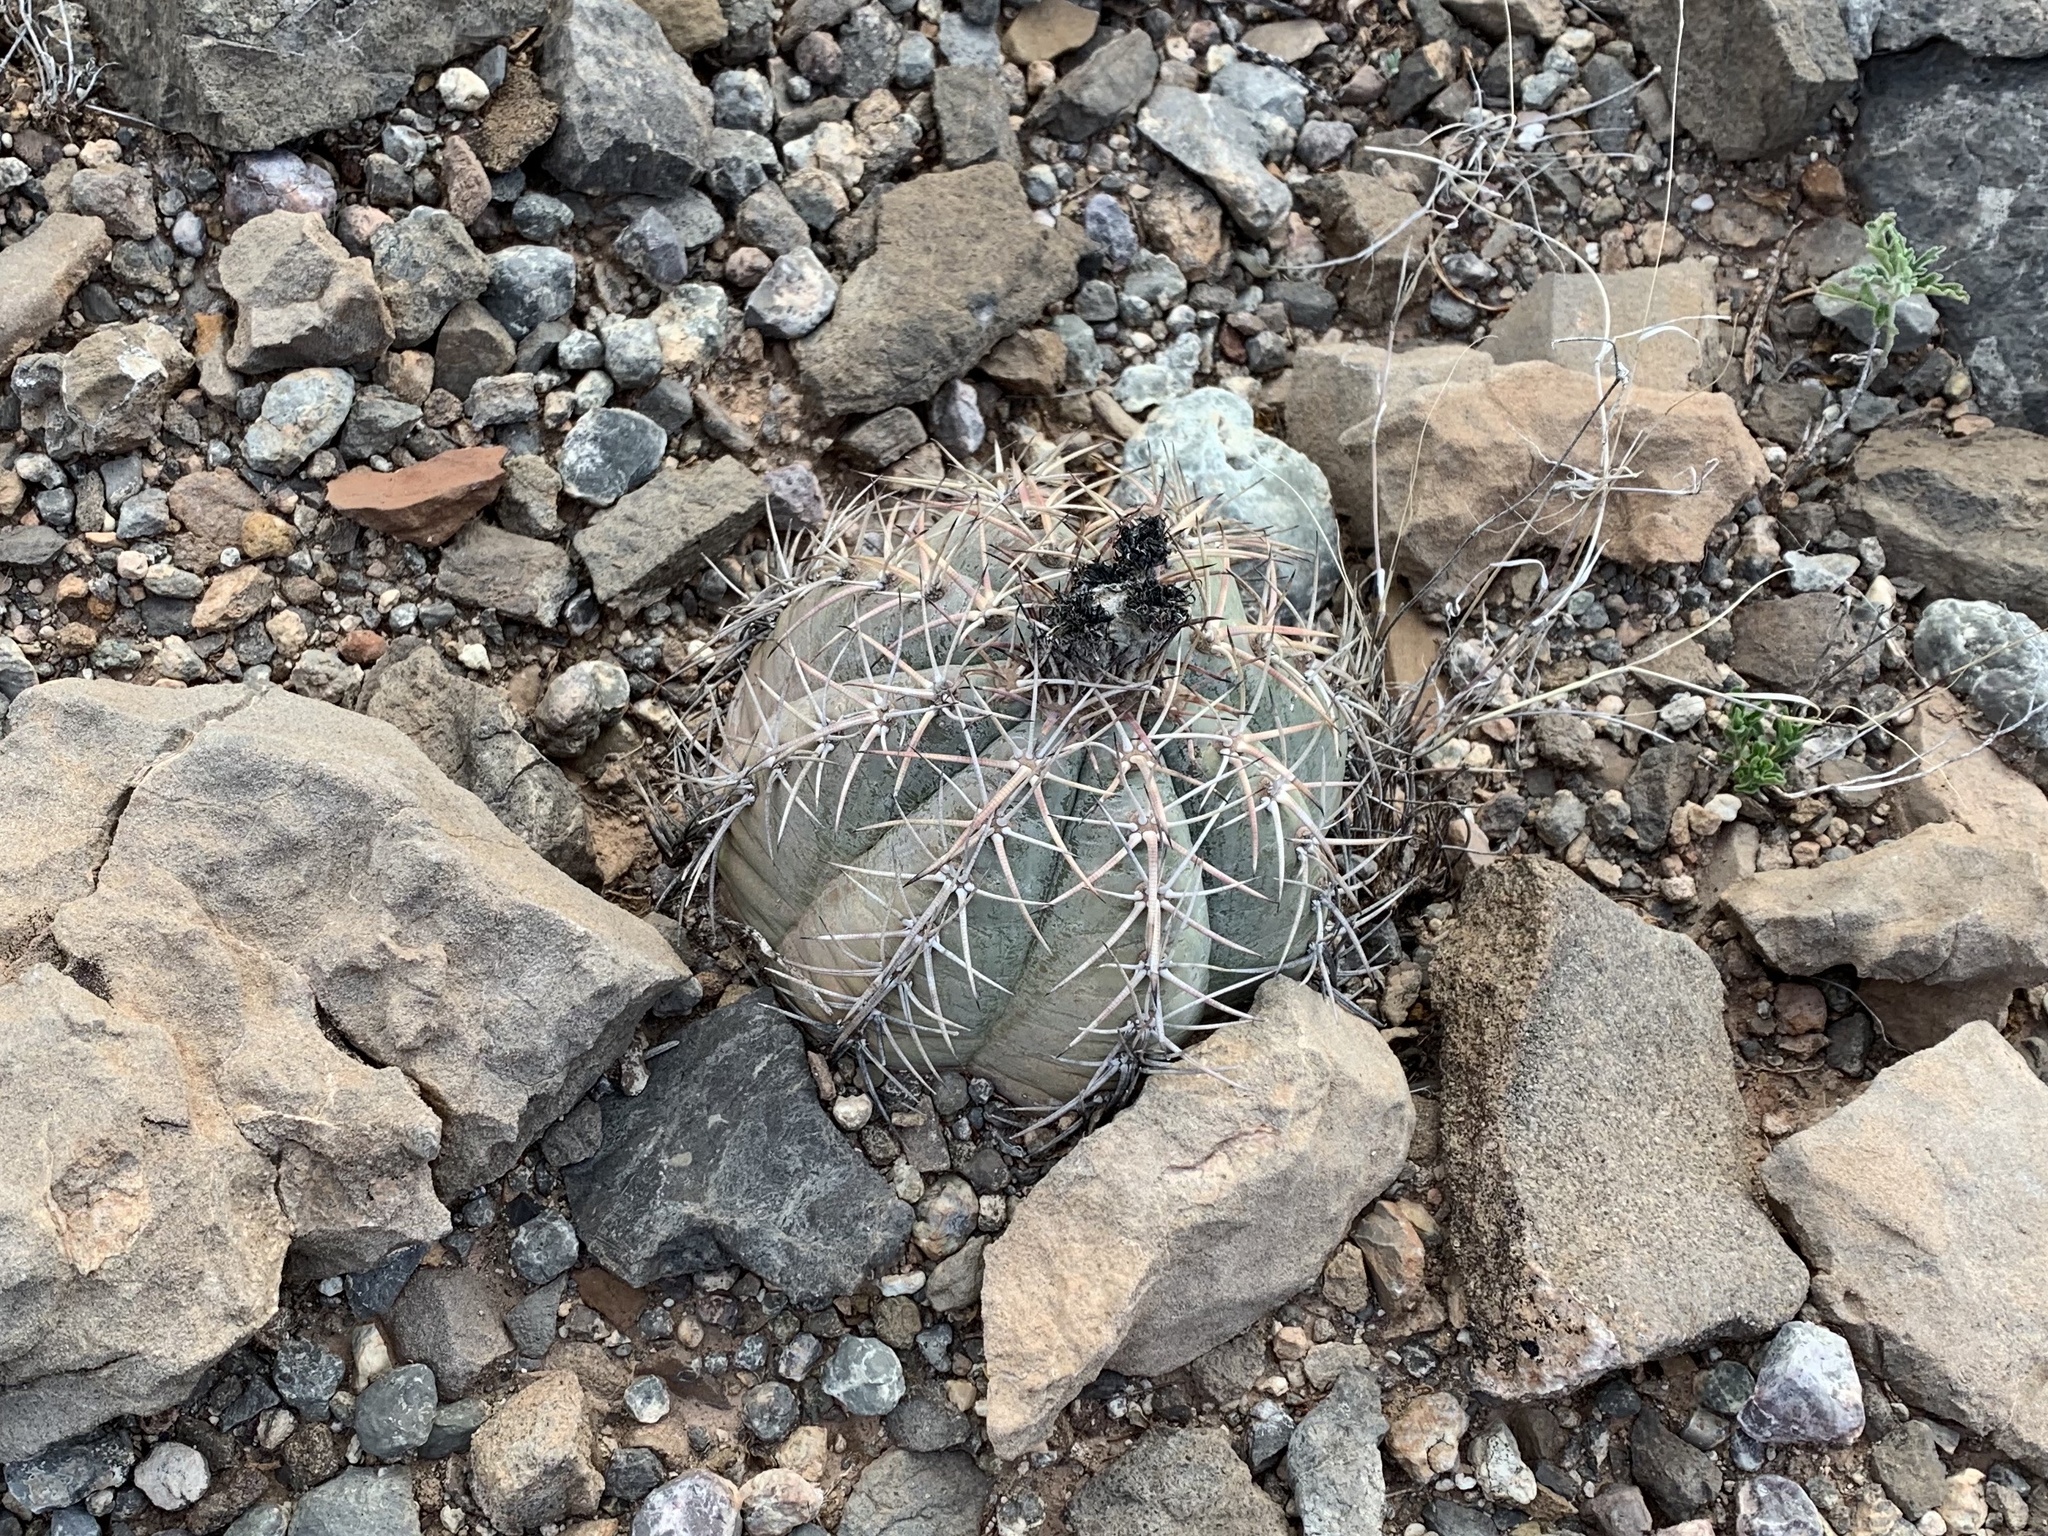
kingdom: Plantae
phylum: Tracheophyta
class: Magnoliopsida
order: Caryophyllales
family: Cactaceae
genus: Echinocactus
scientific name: Echinocactus horizonthalonius
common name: Devilshead
